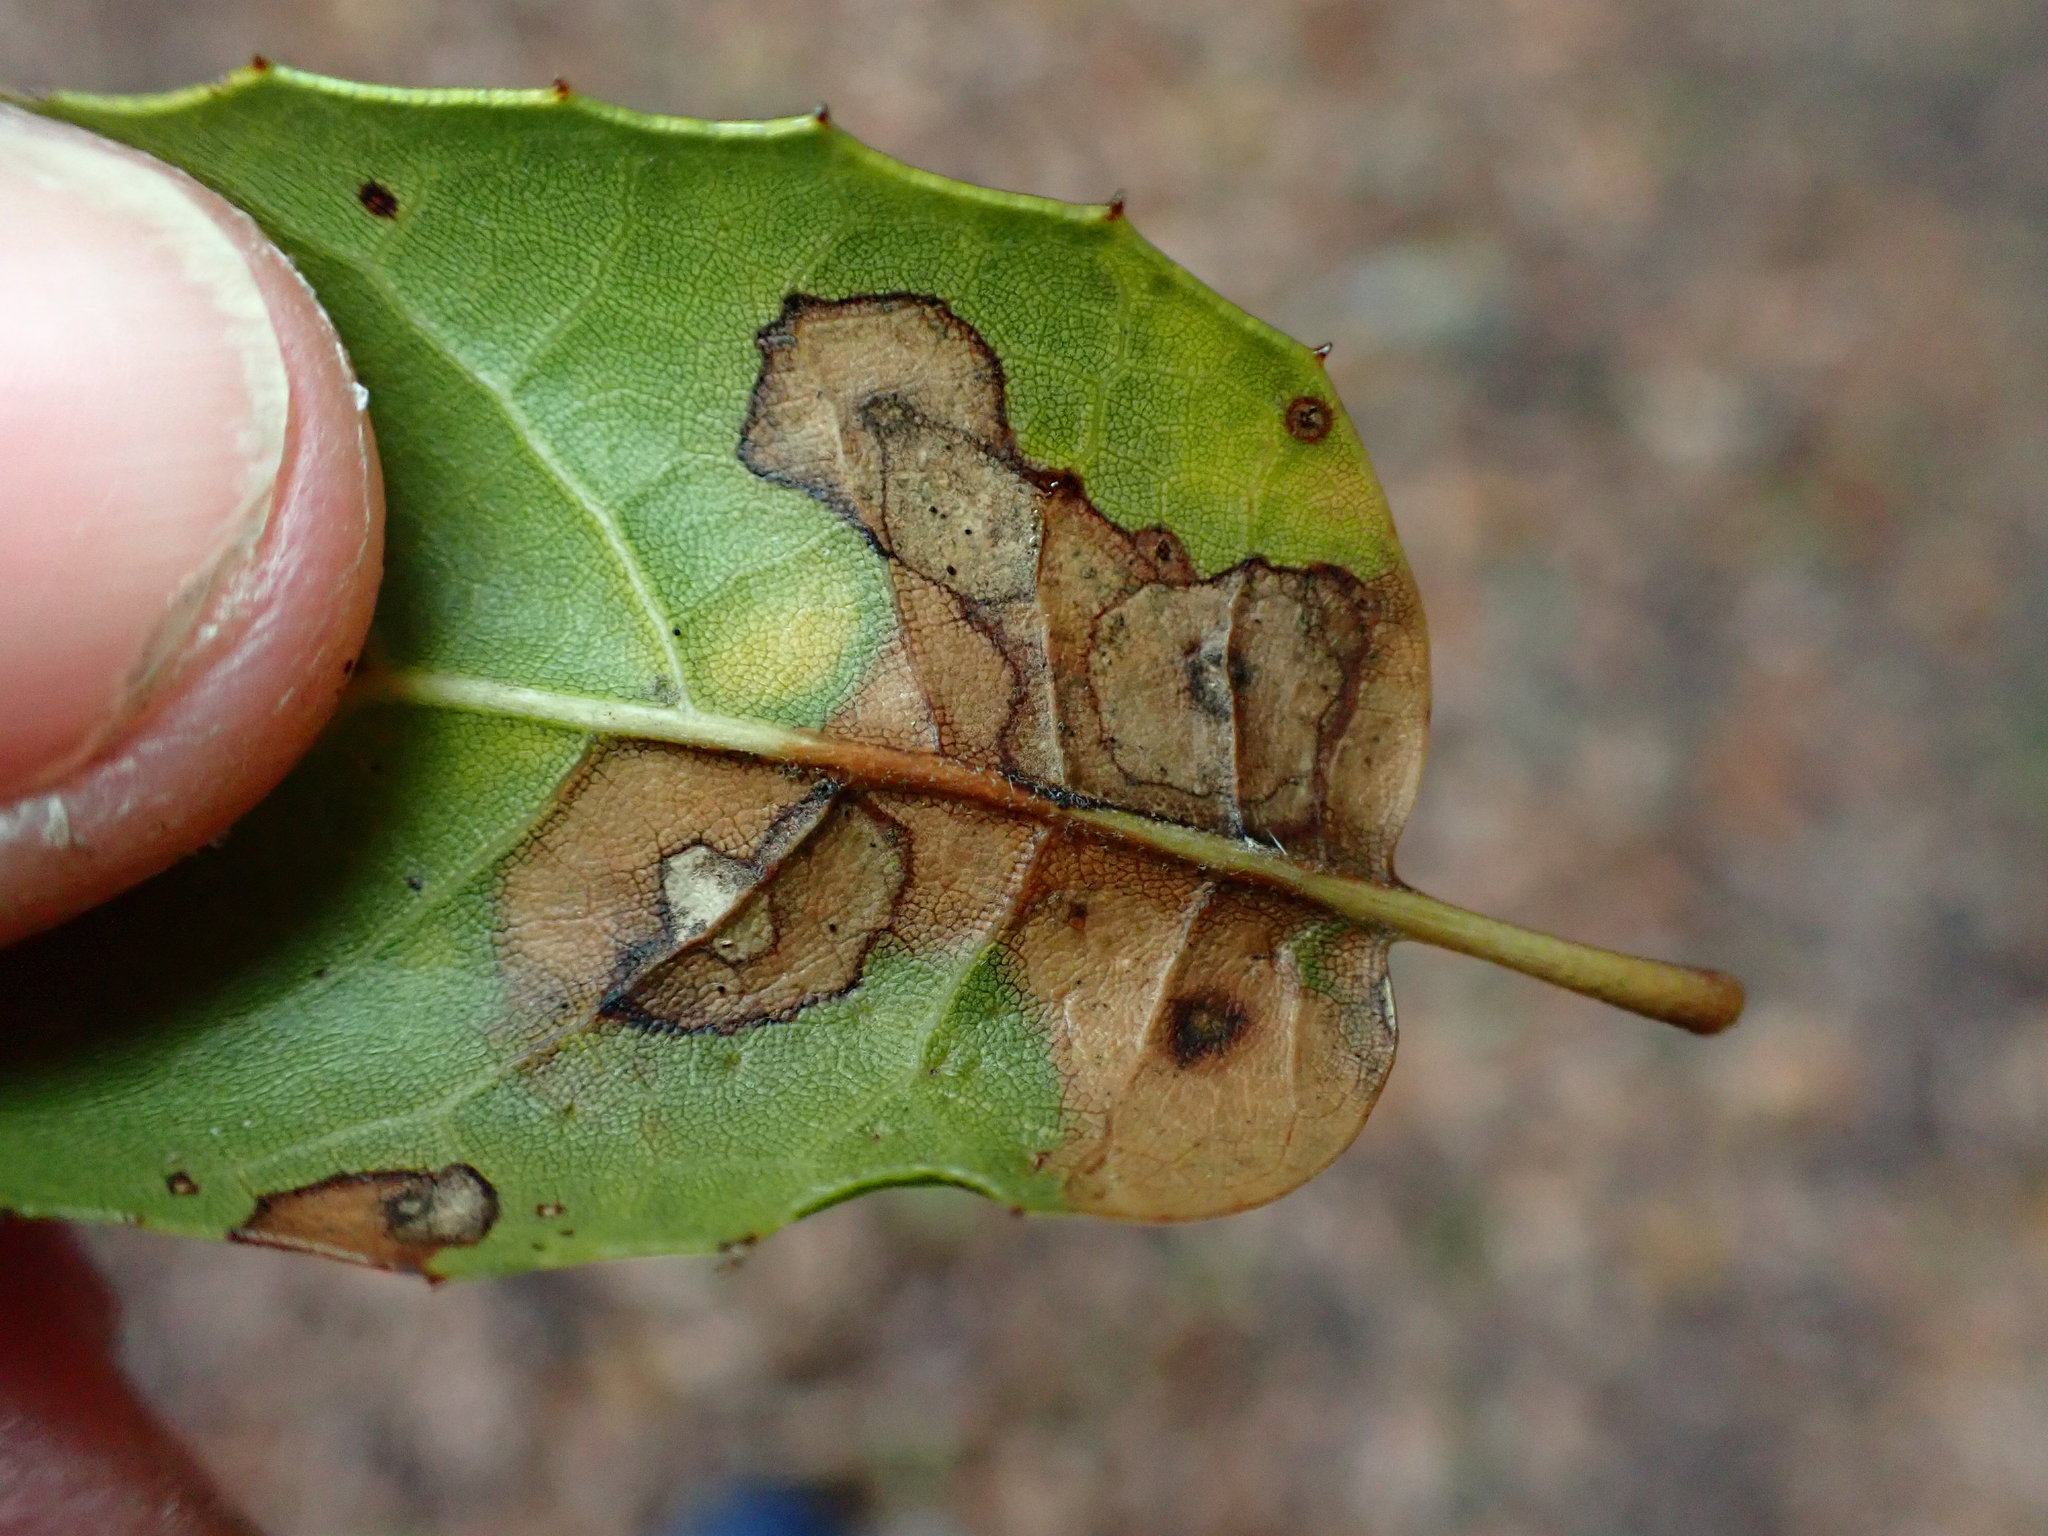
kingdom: Fungi
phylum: Ascomycota
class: Sordariomycetes
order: Diaporthales
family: Tubakiaceae
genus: Tubakia
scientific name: Tubakia californica
